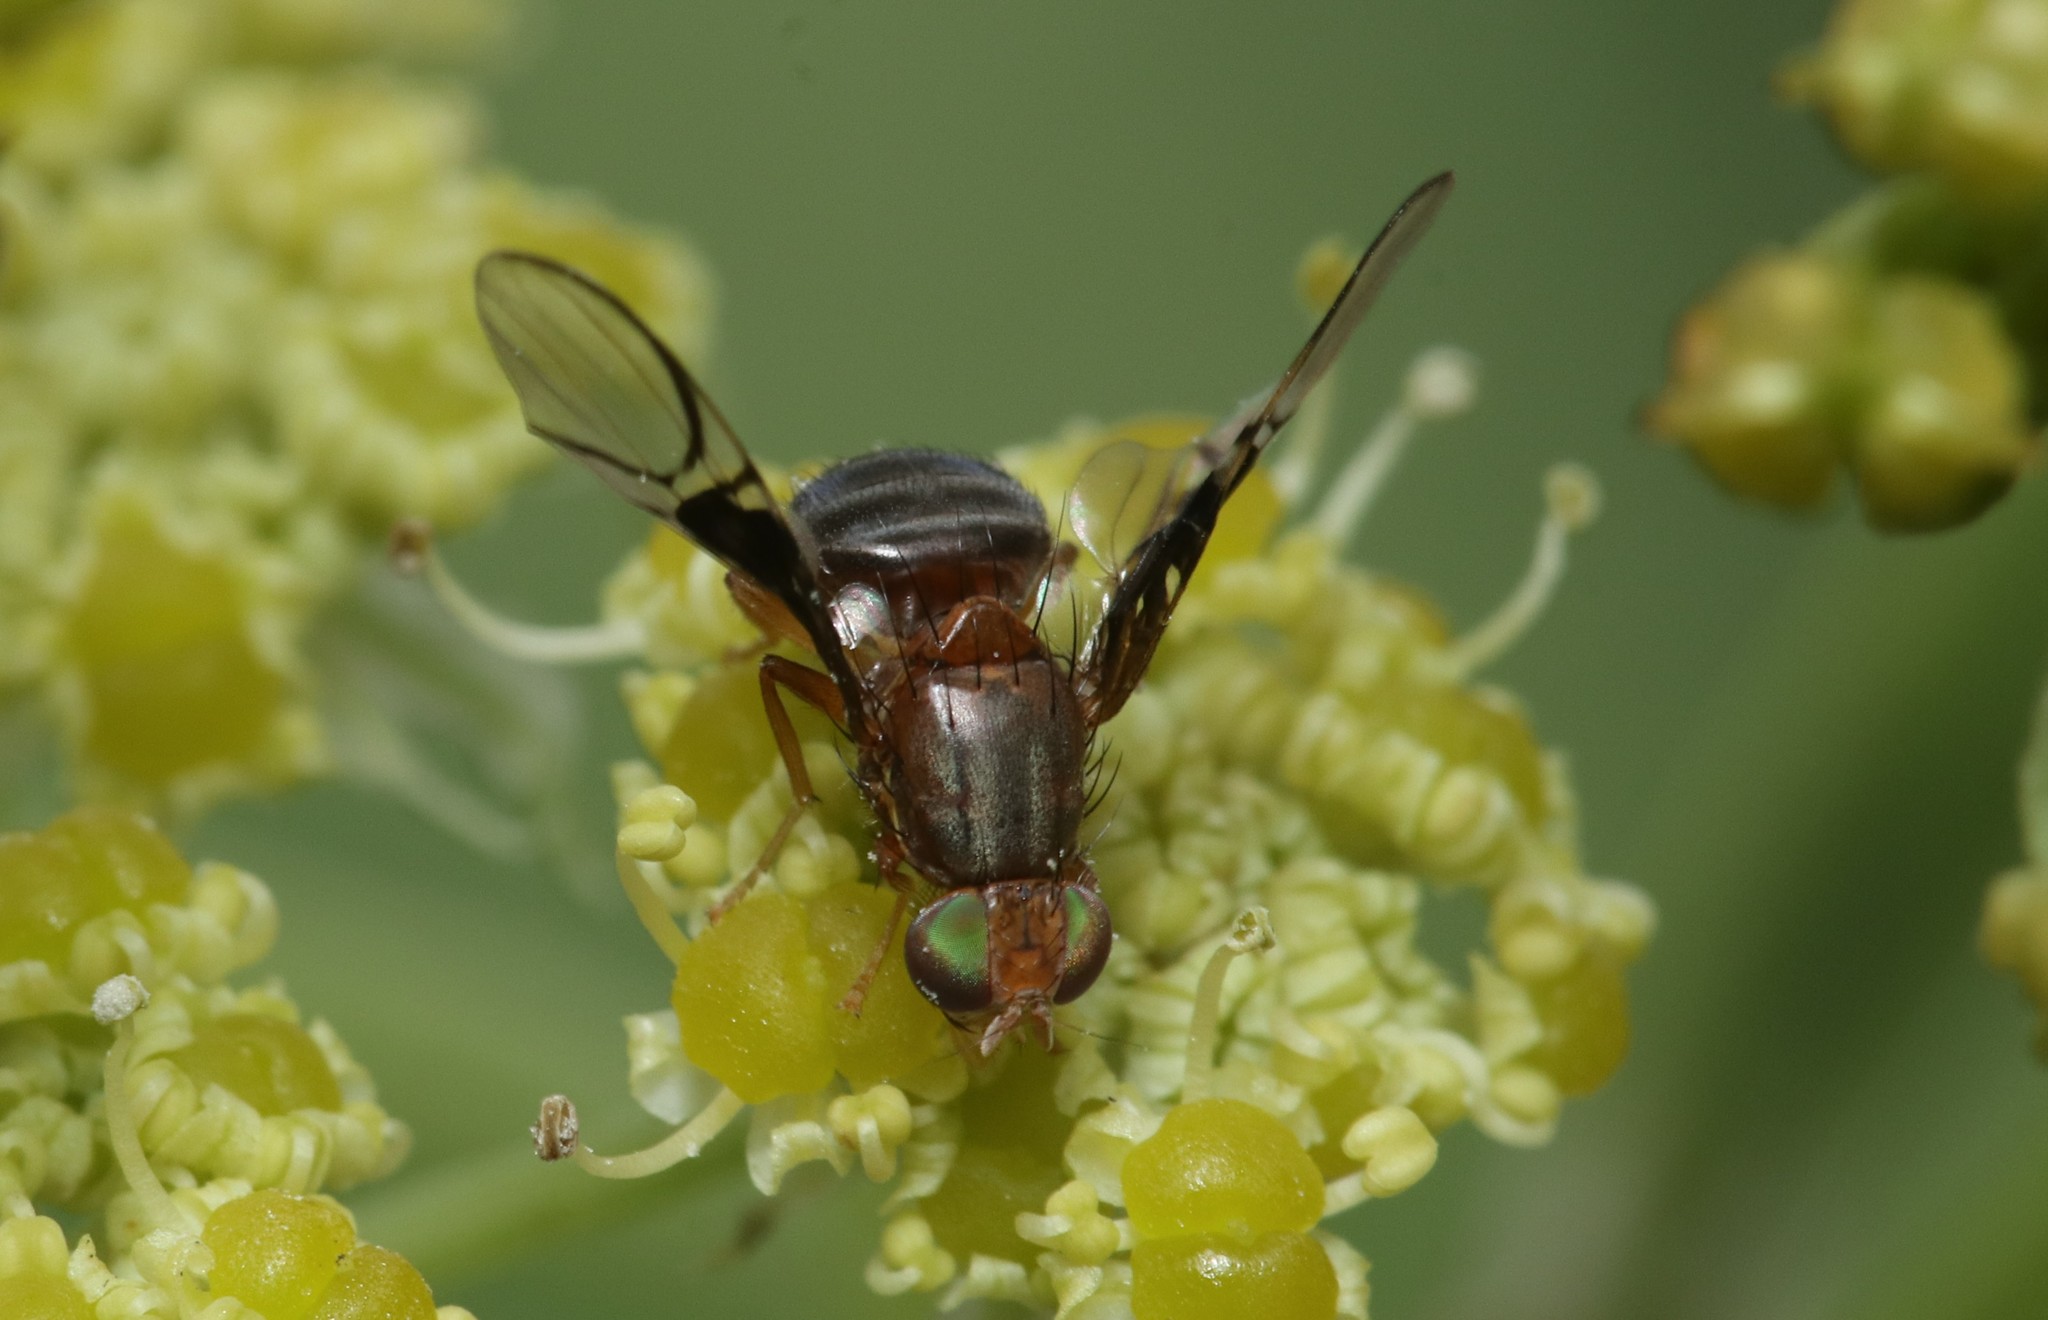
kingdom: Animalia
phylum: Arthropoda
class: Insecta
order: Diptera
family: Tephritidae
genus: Anomoia
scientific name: Anomoia purmunda
